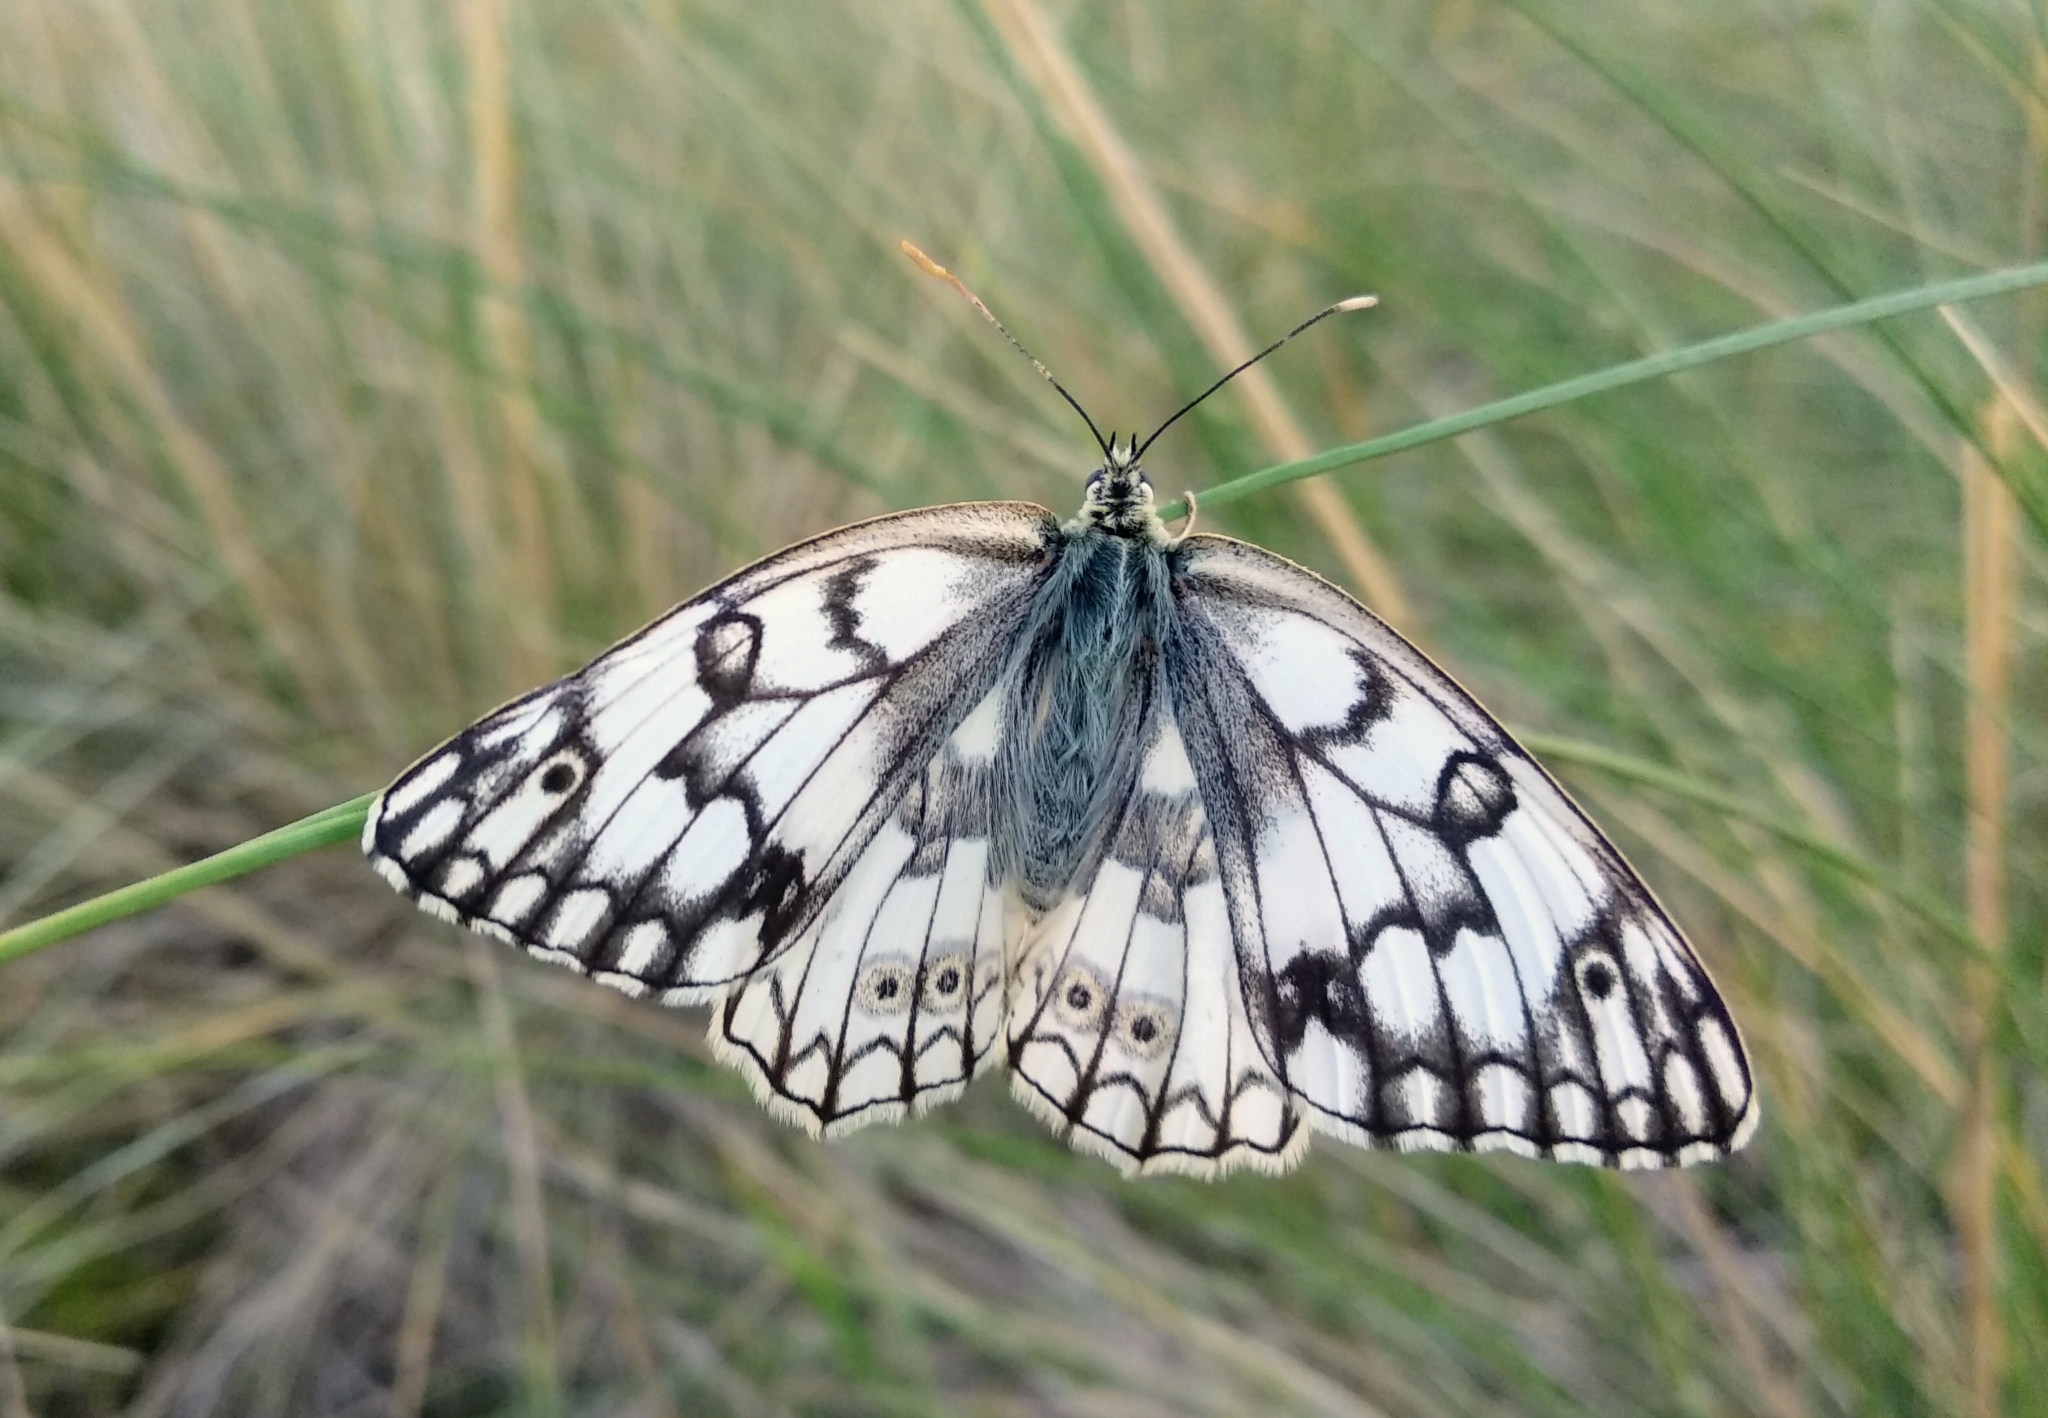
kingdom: Animalia
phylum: Arthropoda
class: Insecta
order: Lepidoptera
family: Nymphalidae
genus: Melanargia
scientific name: Melanargia japygia
